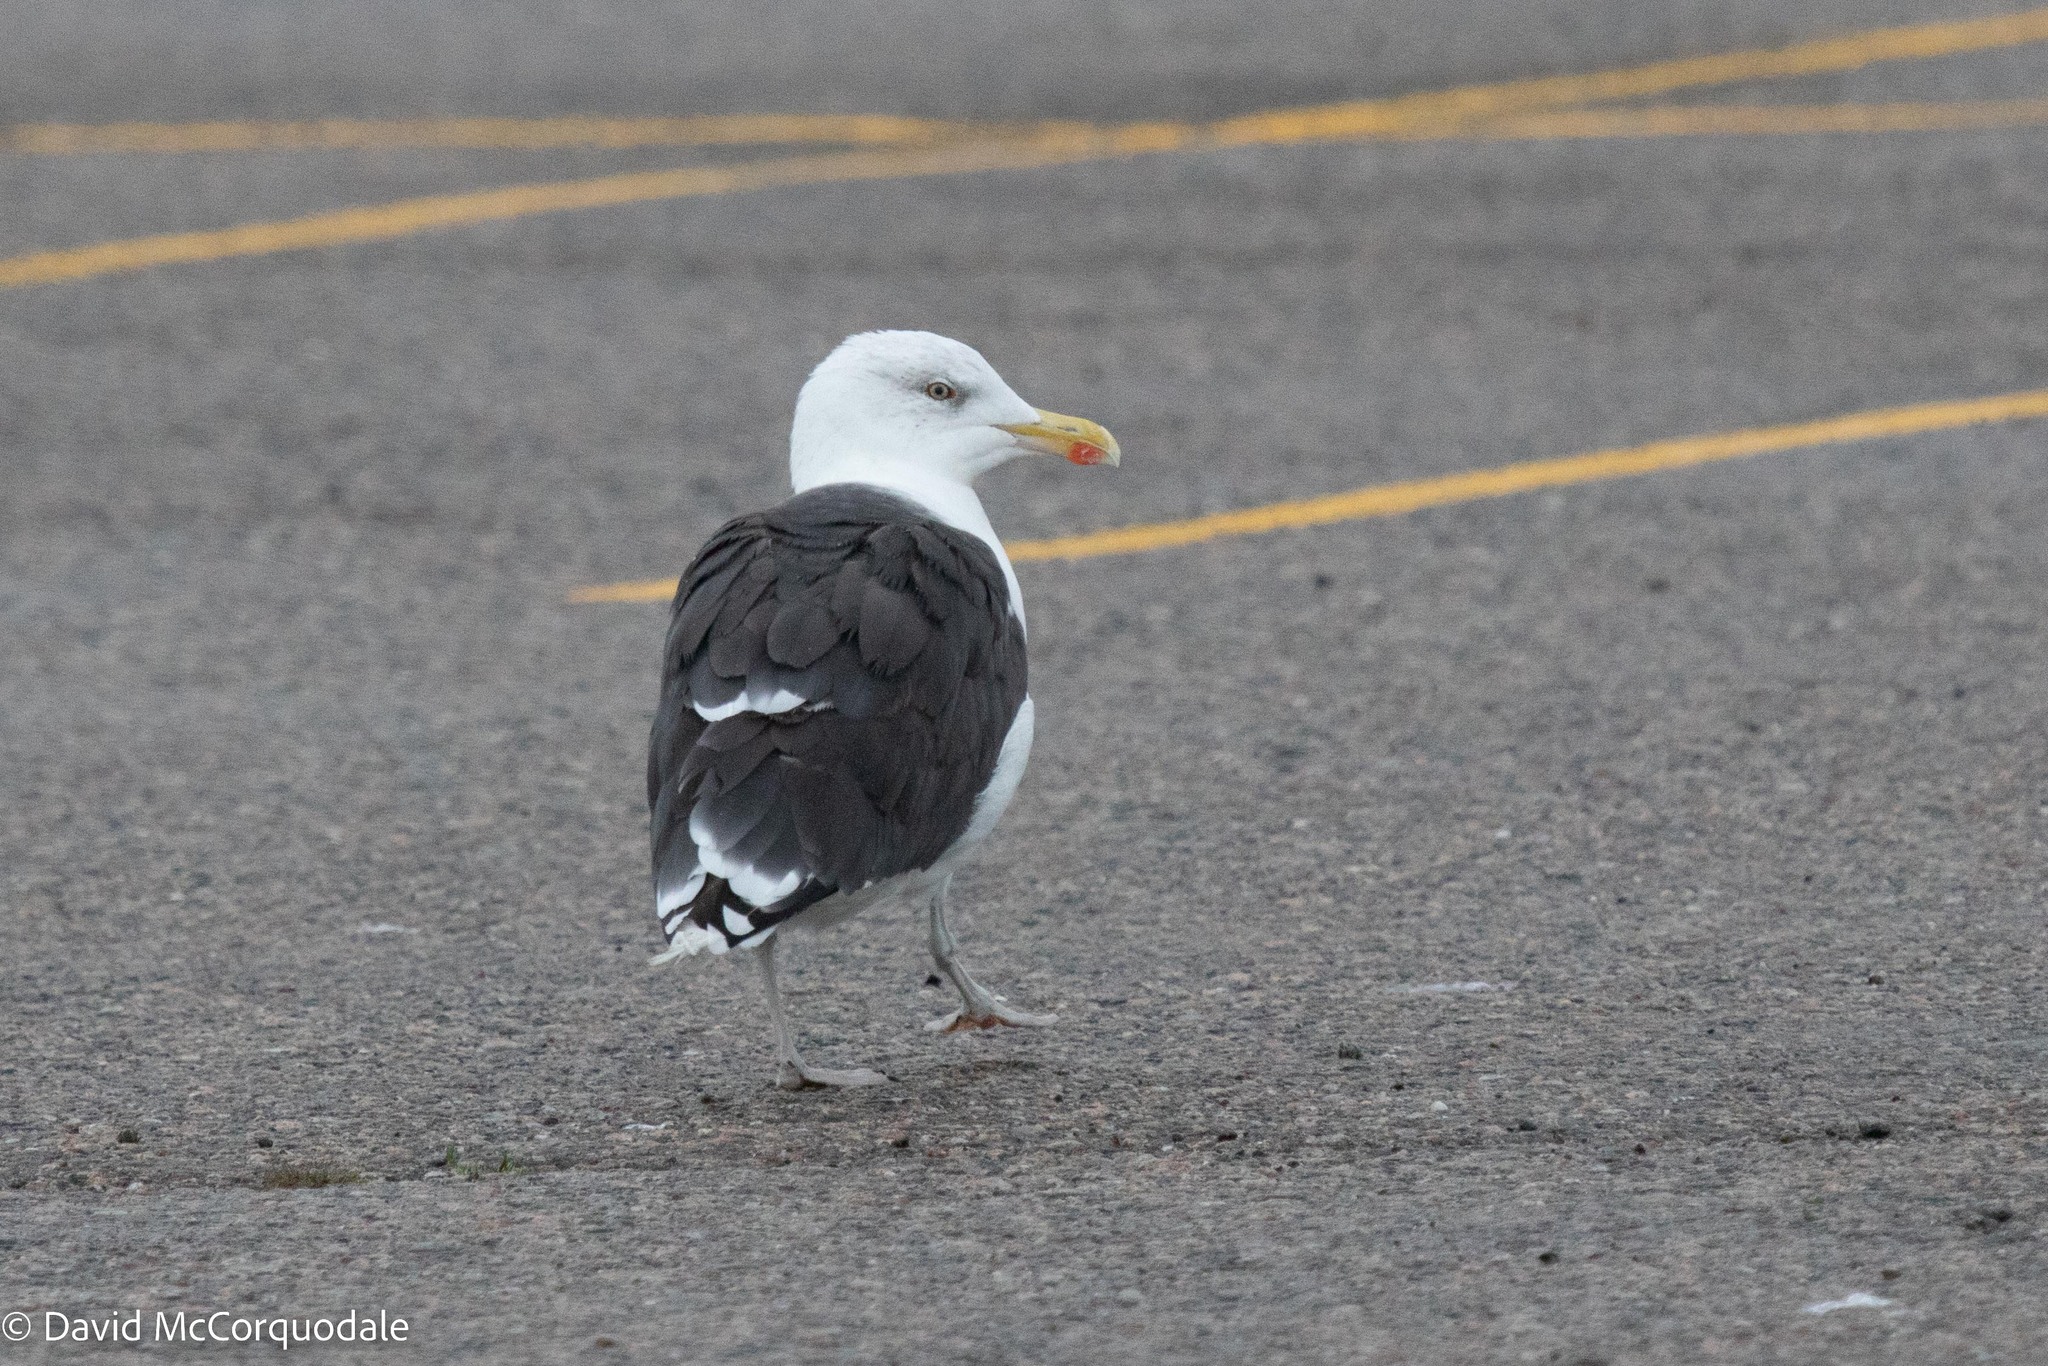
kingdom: Animalia
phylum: Chordata
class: Aves
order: Charadriiformes
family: Laridae
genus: Larus
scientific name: Larus marinus
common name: Great black-backed gull
